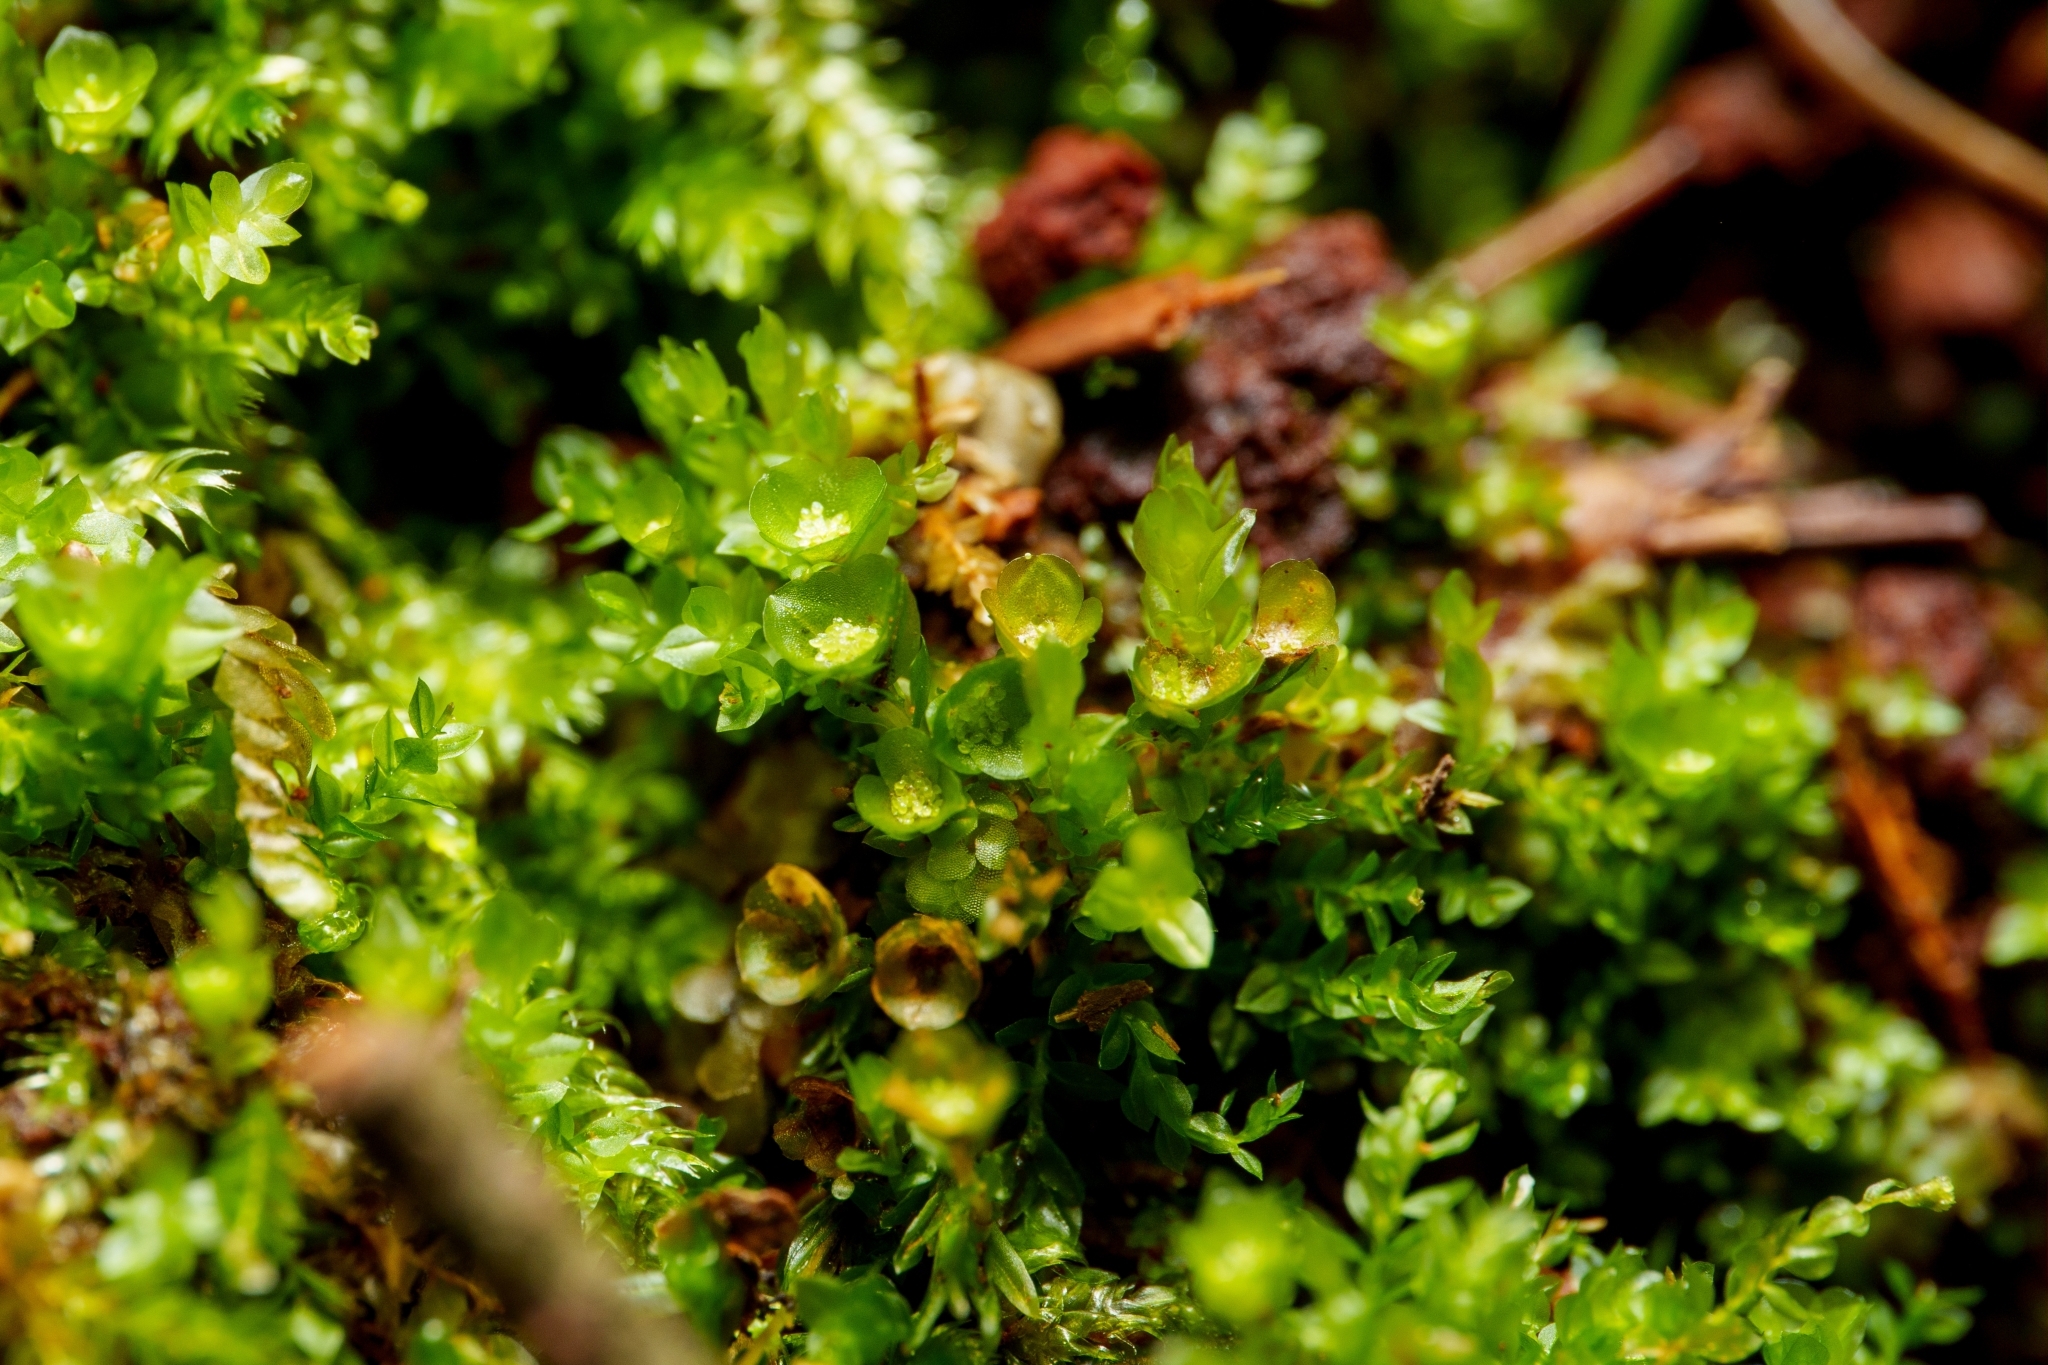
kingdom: Plantae
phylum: Bryophyta
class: Polytrichopsida
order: Tetraphidales
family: Tetraphidaceae
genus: Tetraphis
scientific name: Tetraphis pellucida
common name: Common four-toothed moss
